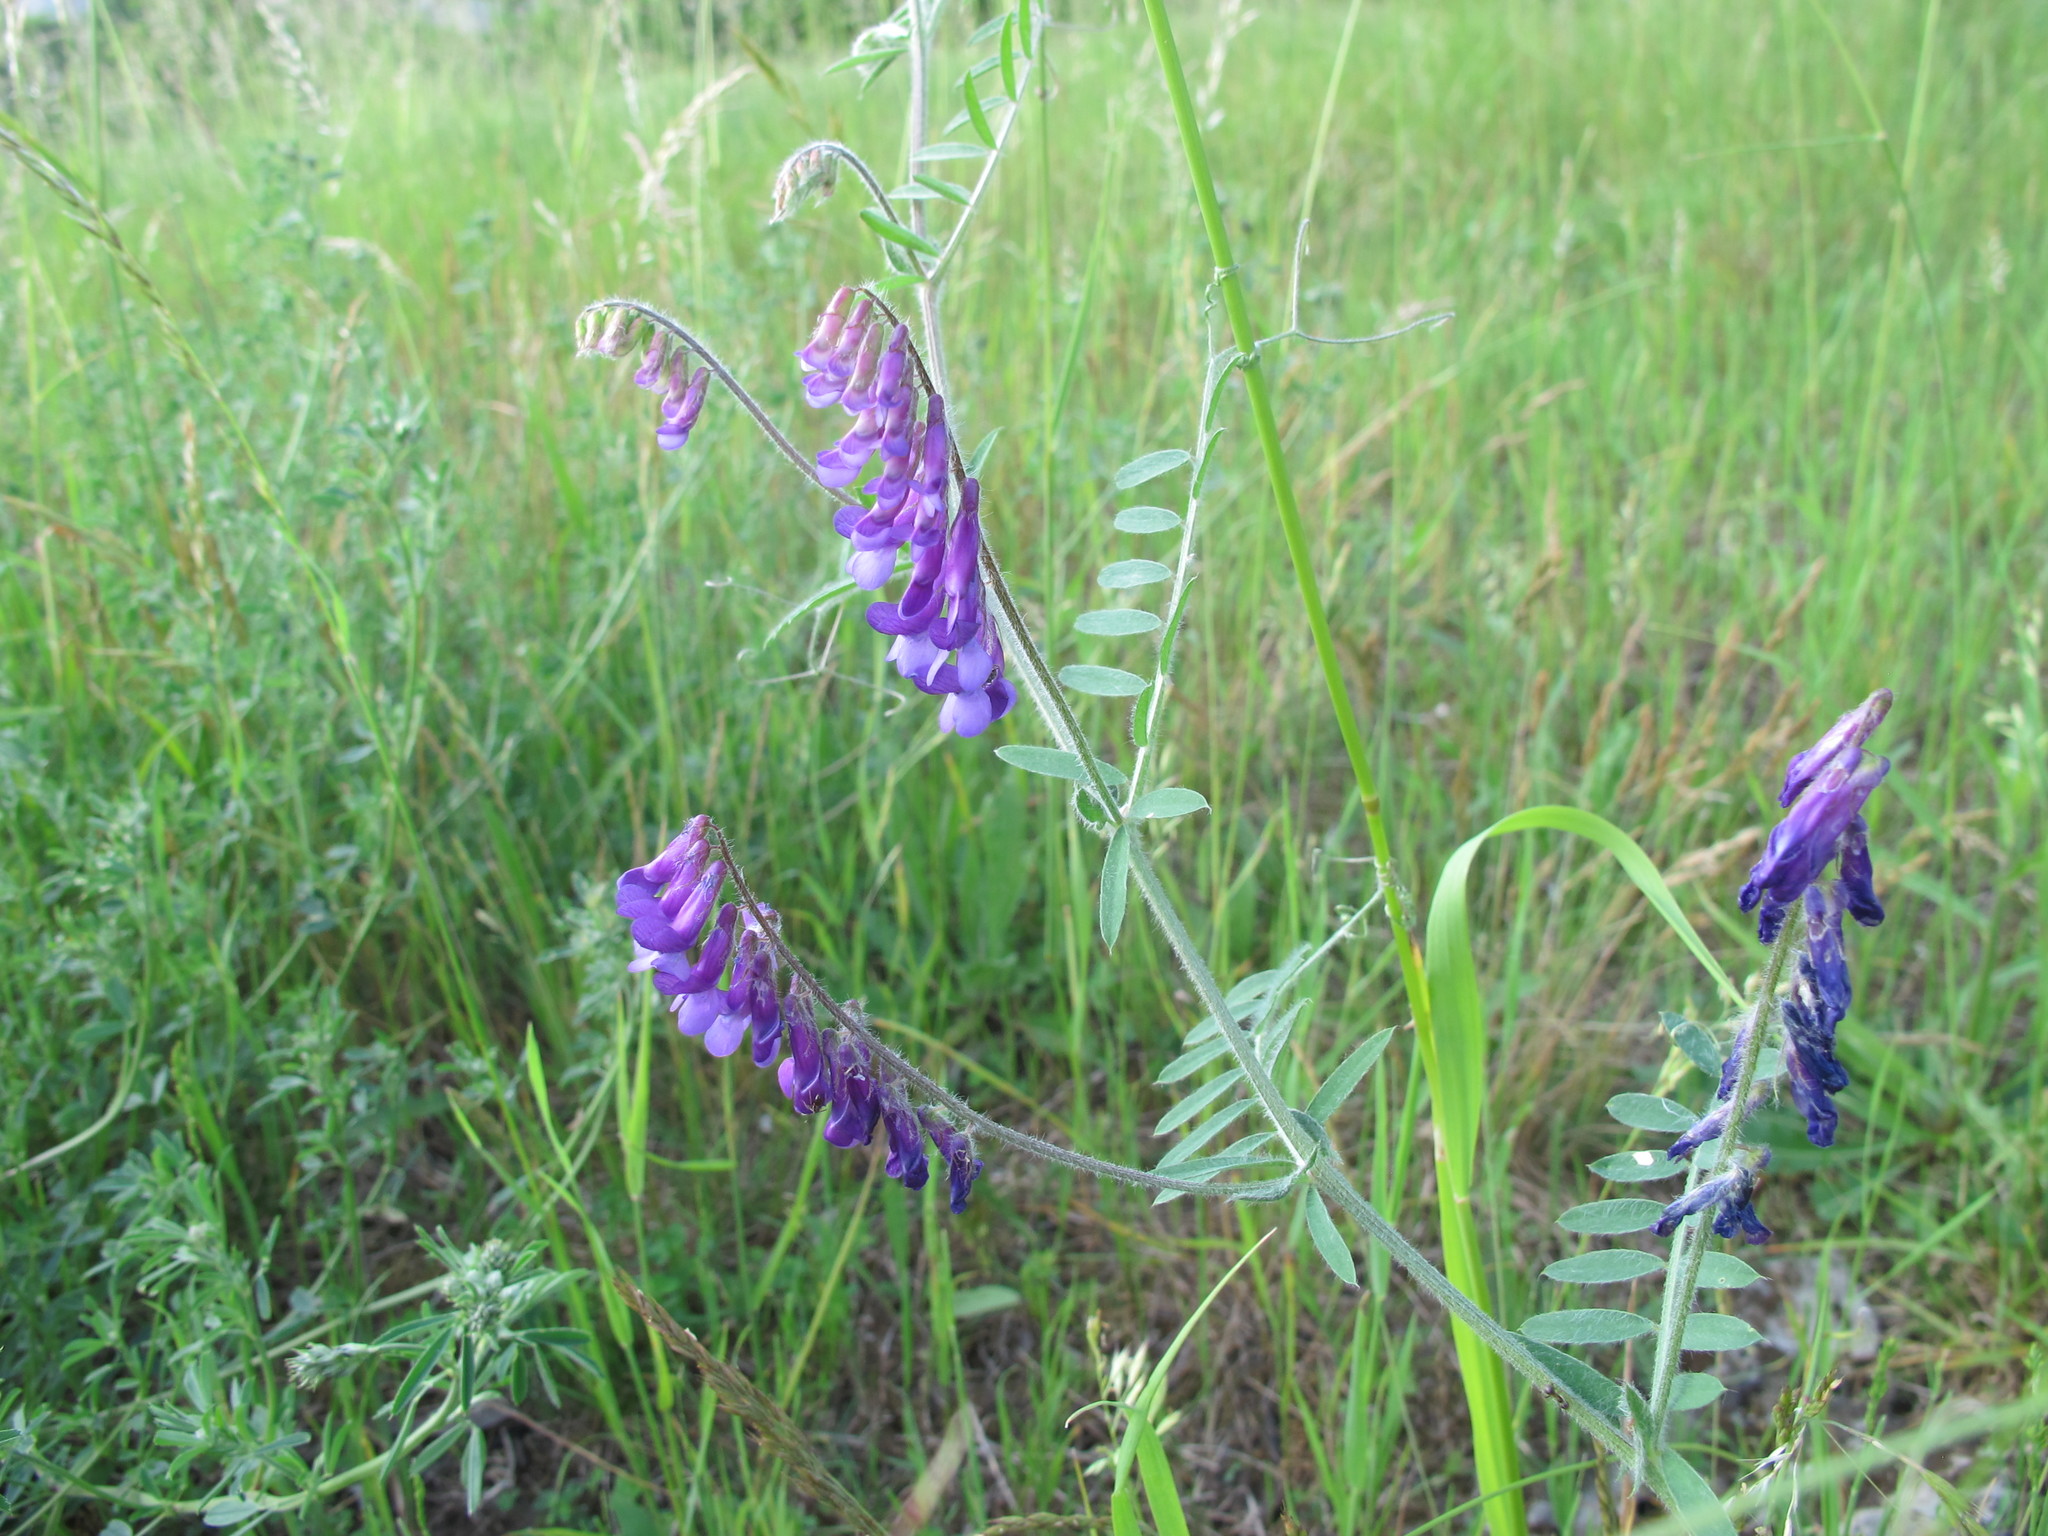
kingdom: Plantae
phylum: Tracheophyta
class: Magnoliopsida
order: Fabales
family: Fabaceae
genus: Vicia
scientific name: Vicia villosa
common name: Fodder vetch
